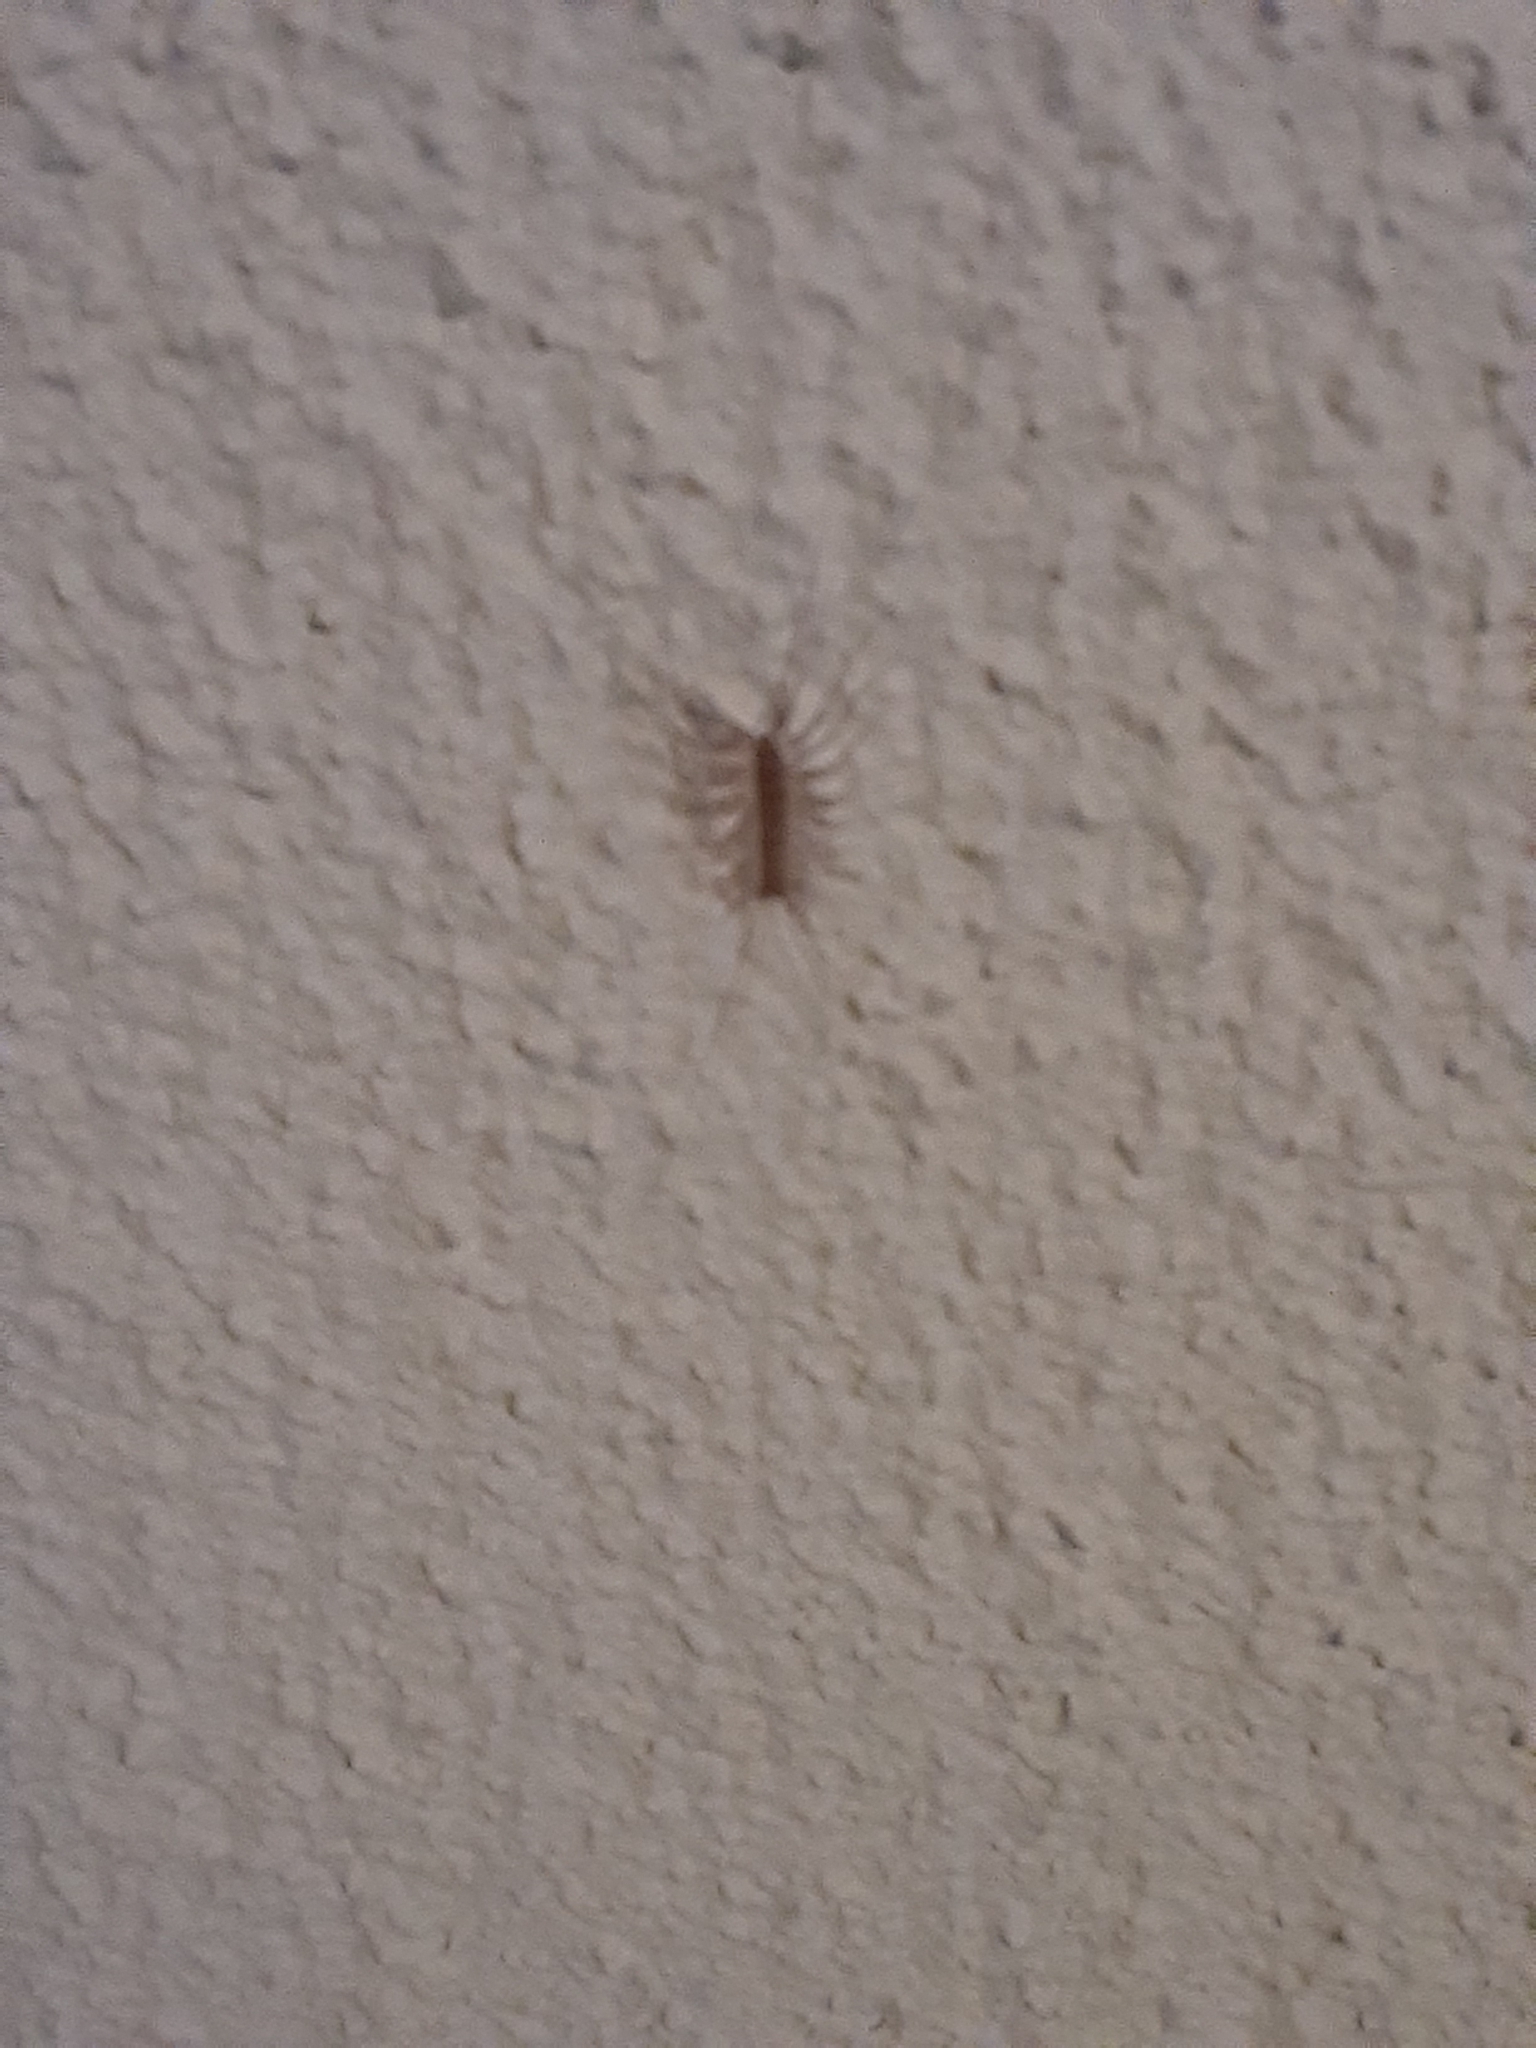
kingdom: Animalia
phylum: Arthropoda
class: Chilopoda
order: Scutigeromorpha
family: Scutigeridae
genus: Scutigera
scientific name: Scutigera coleoptrata
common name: House centipede
